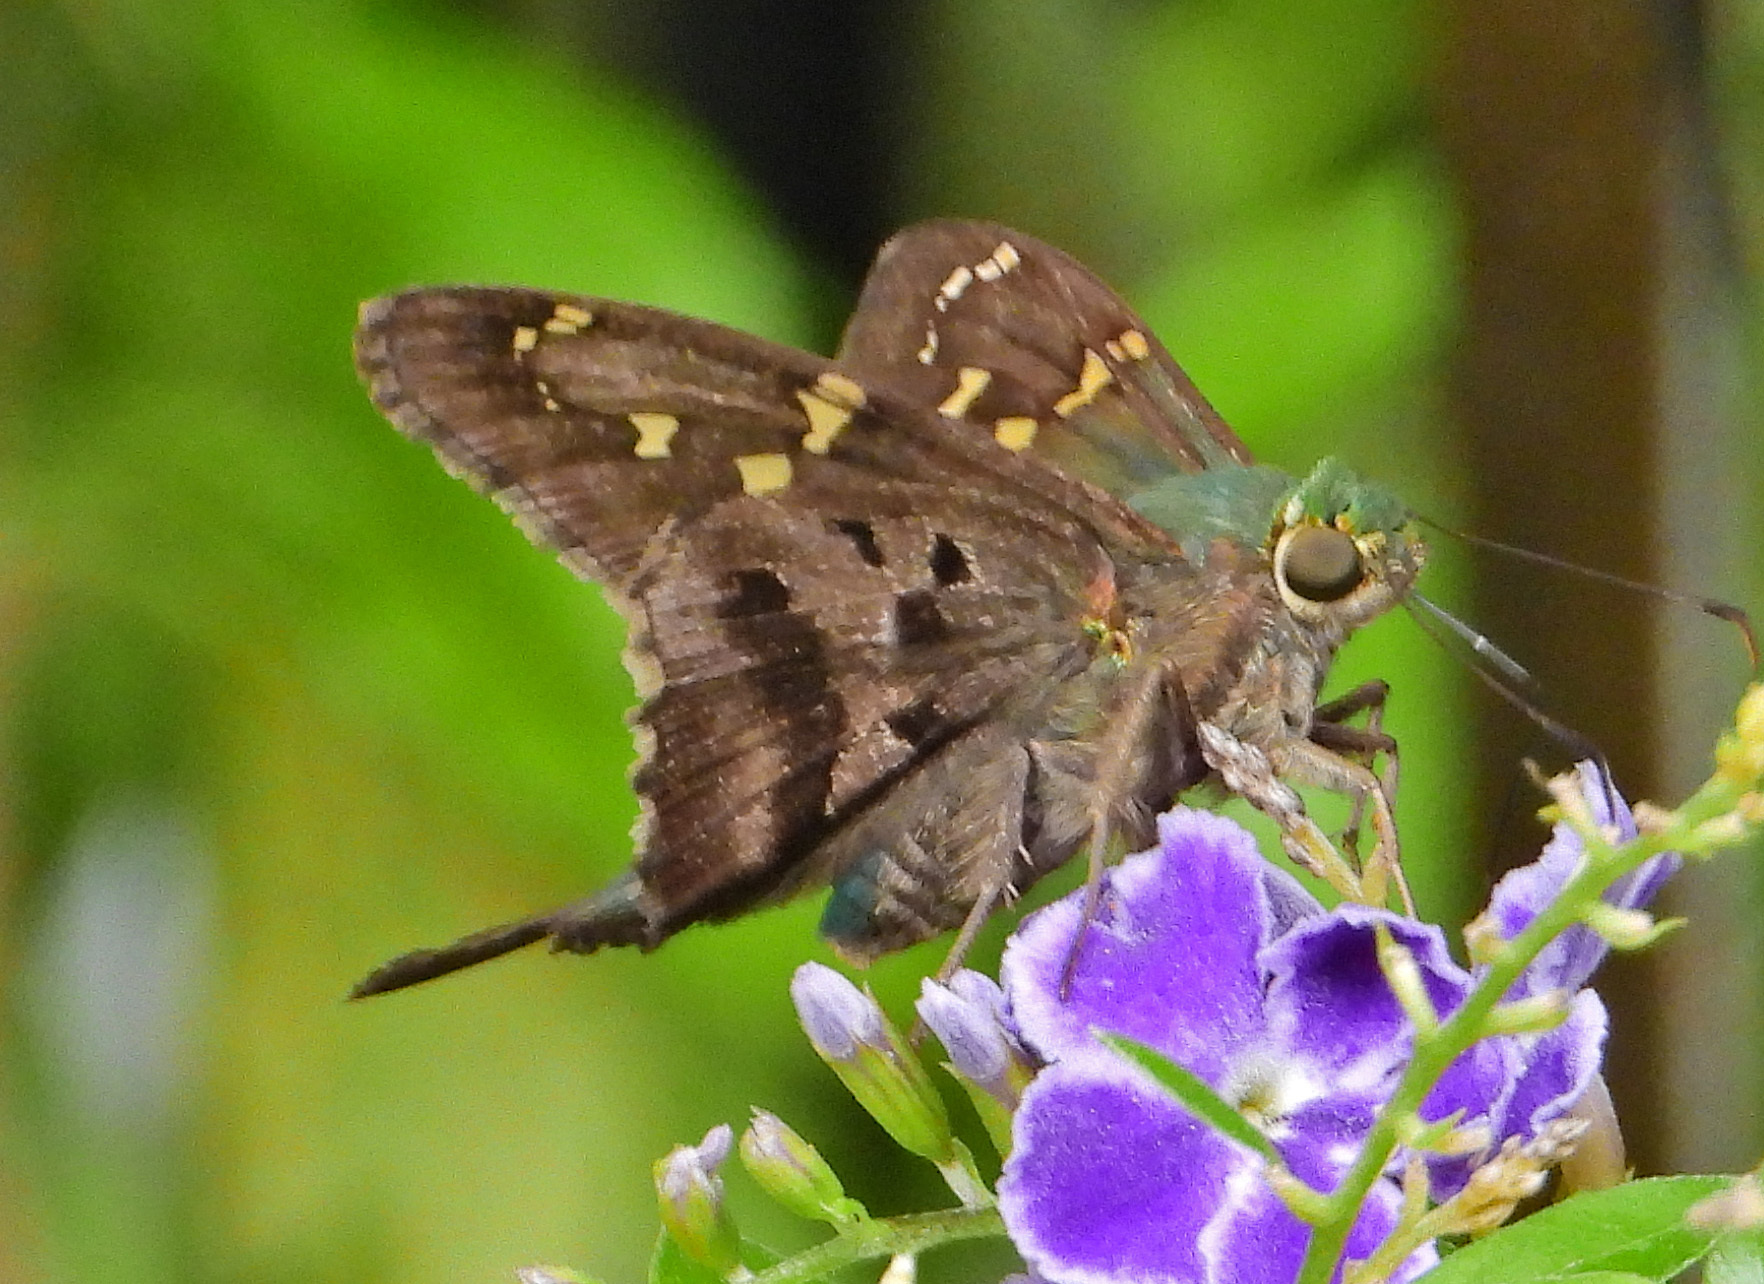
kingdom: Animalia
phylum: Arthropoda
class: Insecta
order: Lepidoptera
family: Hesperiidae
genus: Urbanus
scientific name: Urbanus proteus
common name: Long-tailed skipper
